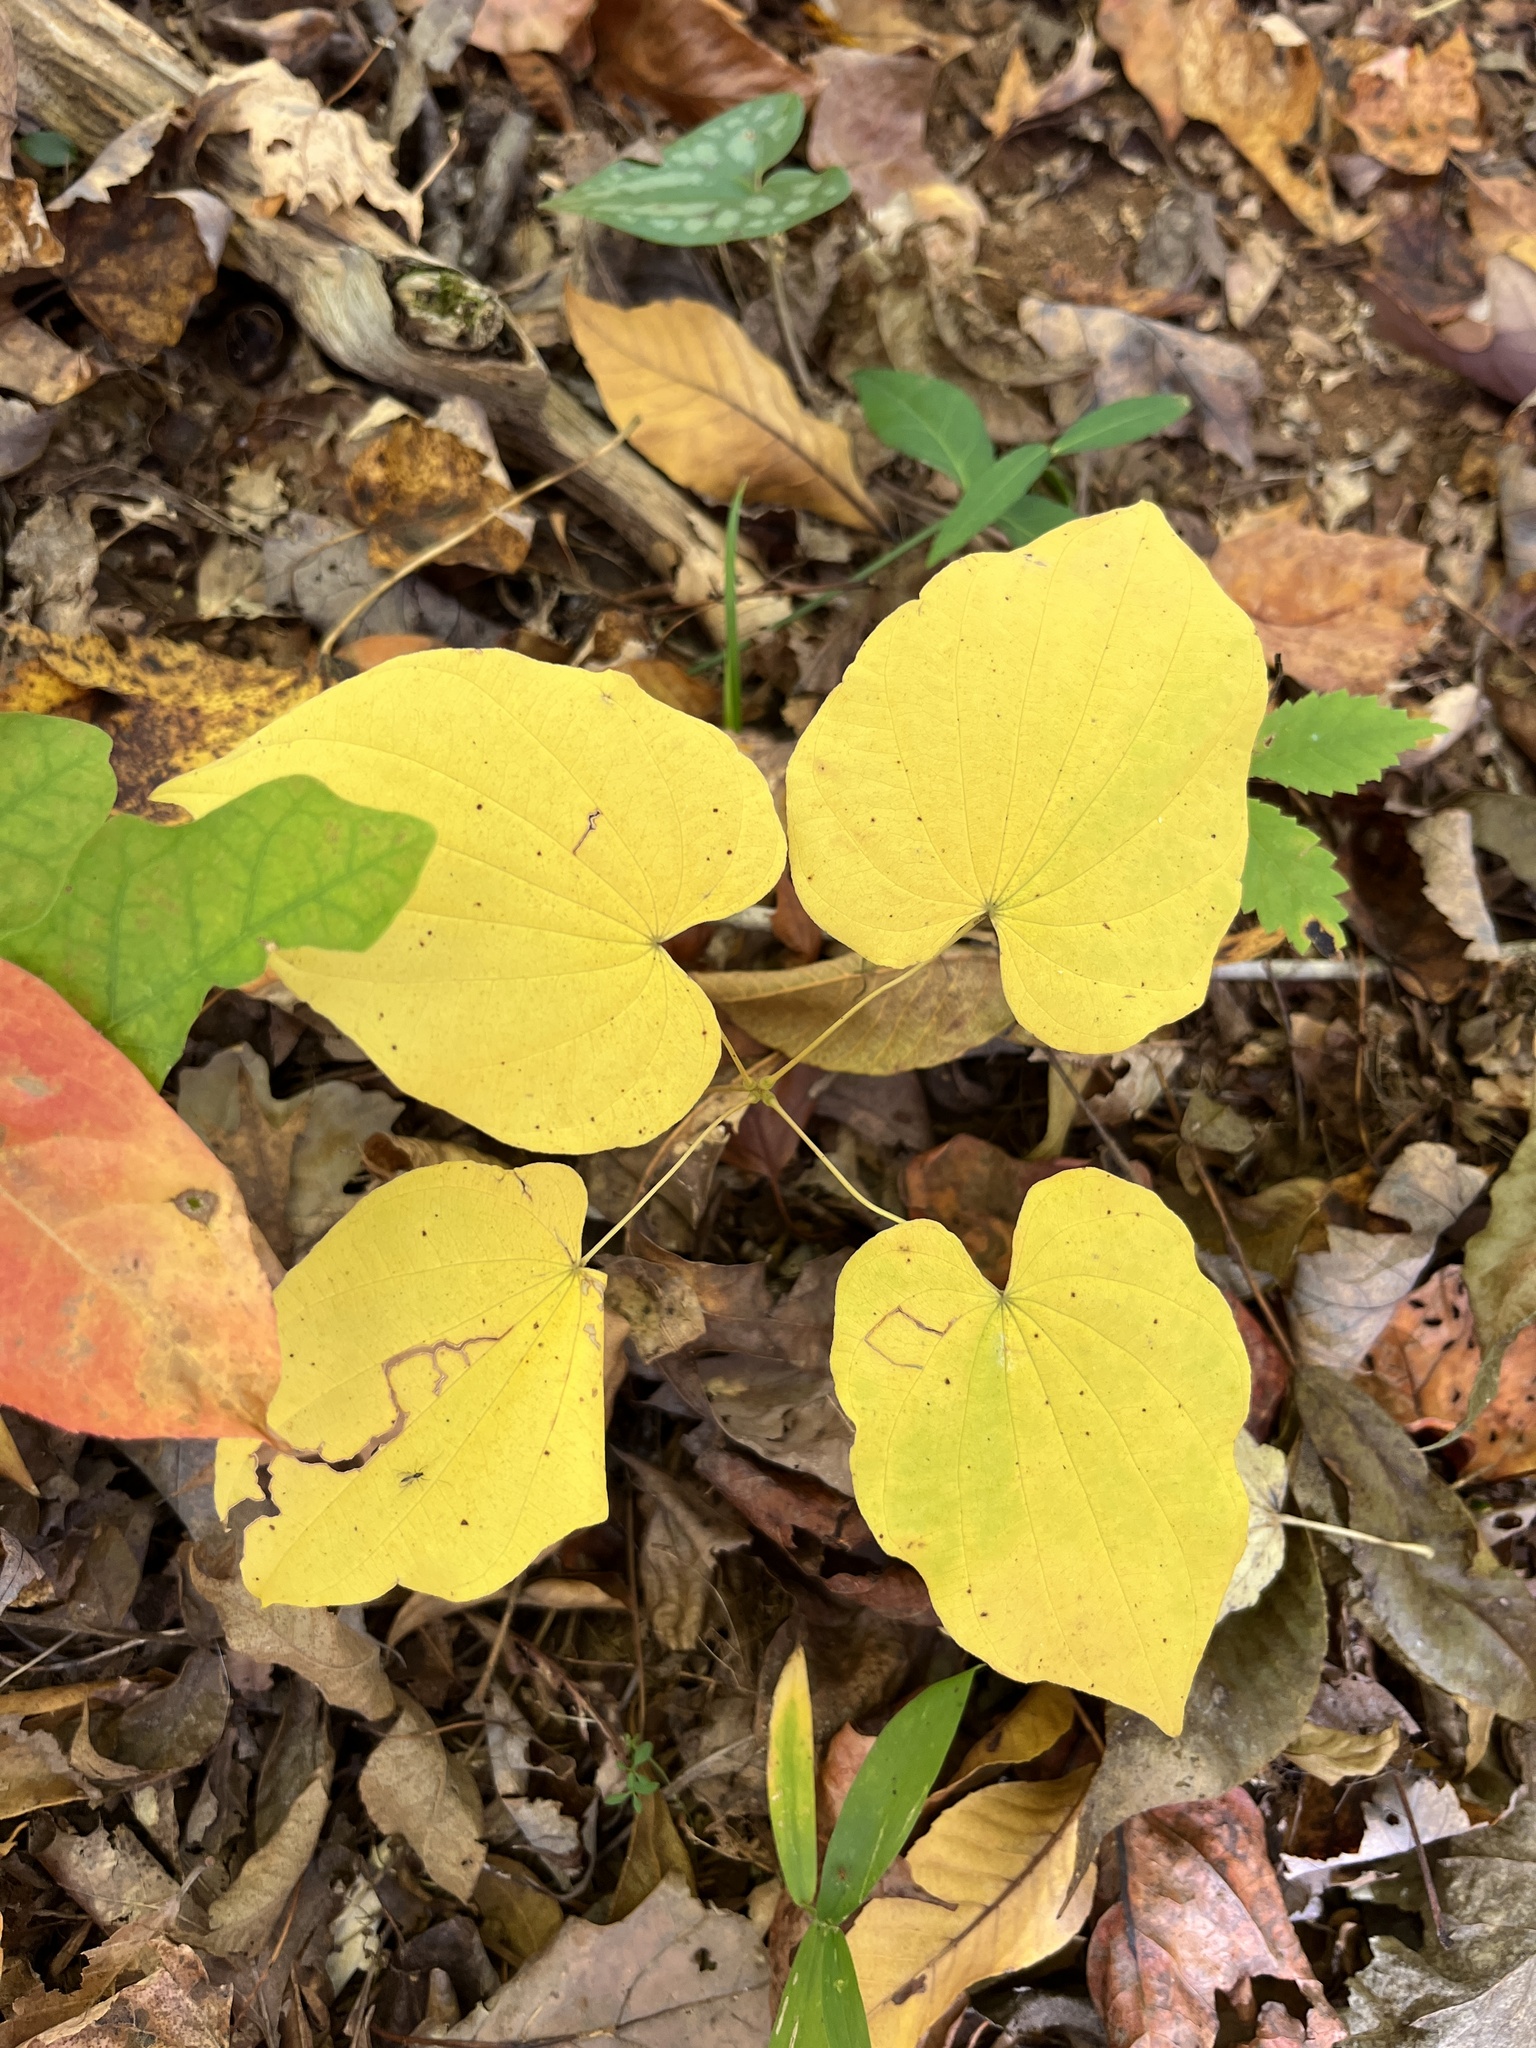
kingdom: Plantae
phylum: Tracheophyta
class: Liliopsida
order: Dioscoreales
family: Dioscoreaceae
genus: Dioscorea
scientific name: Dioscorea villosa
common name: Wild yam
